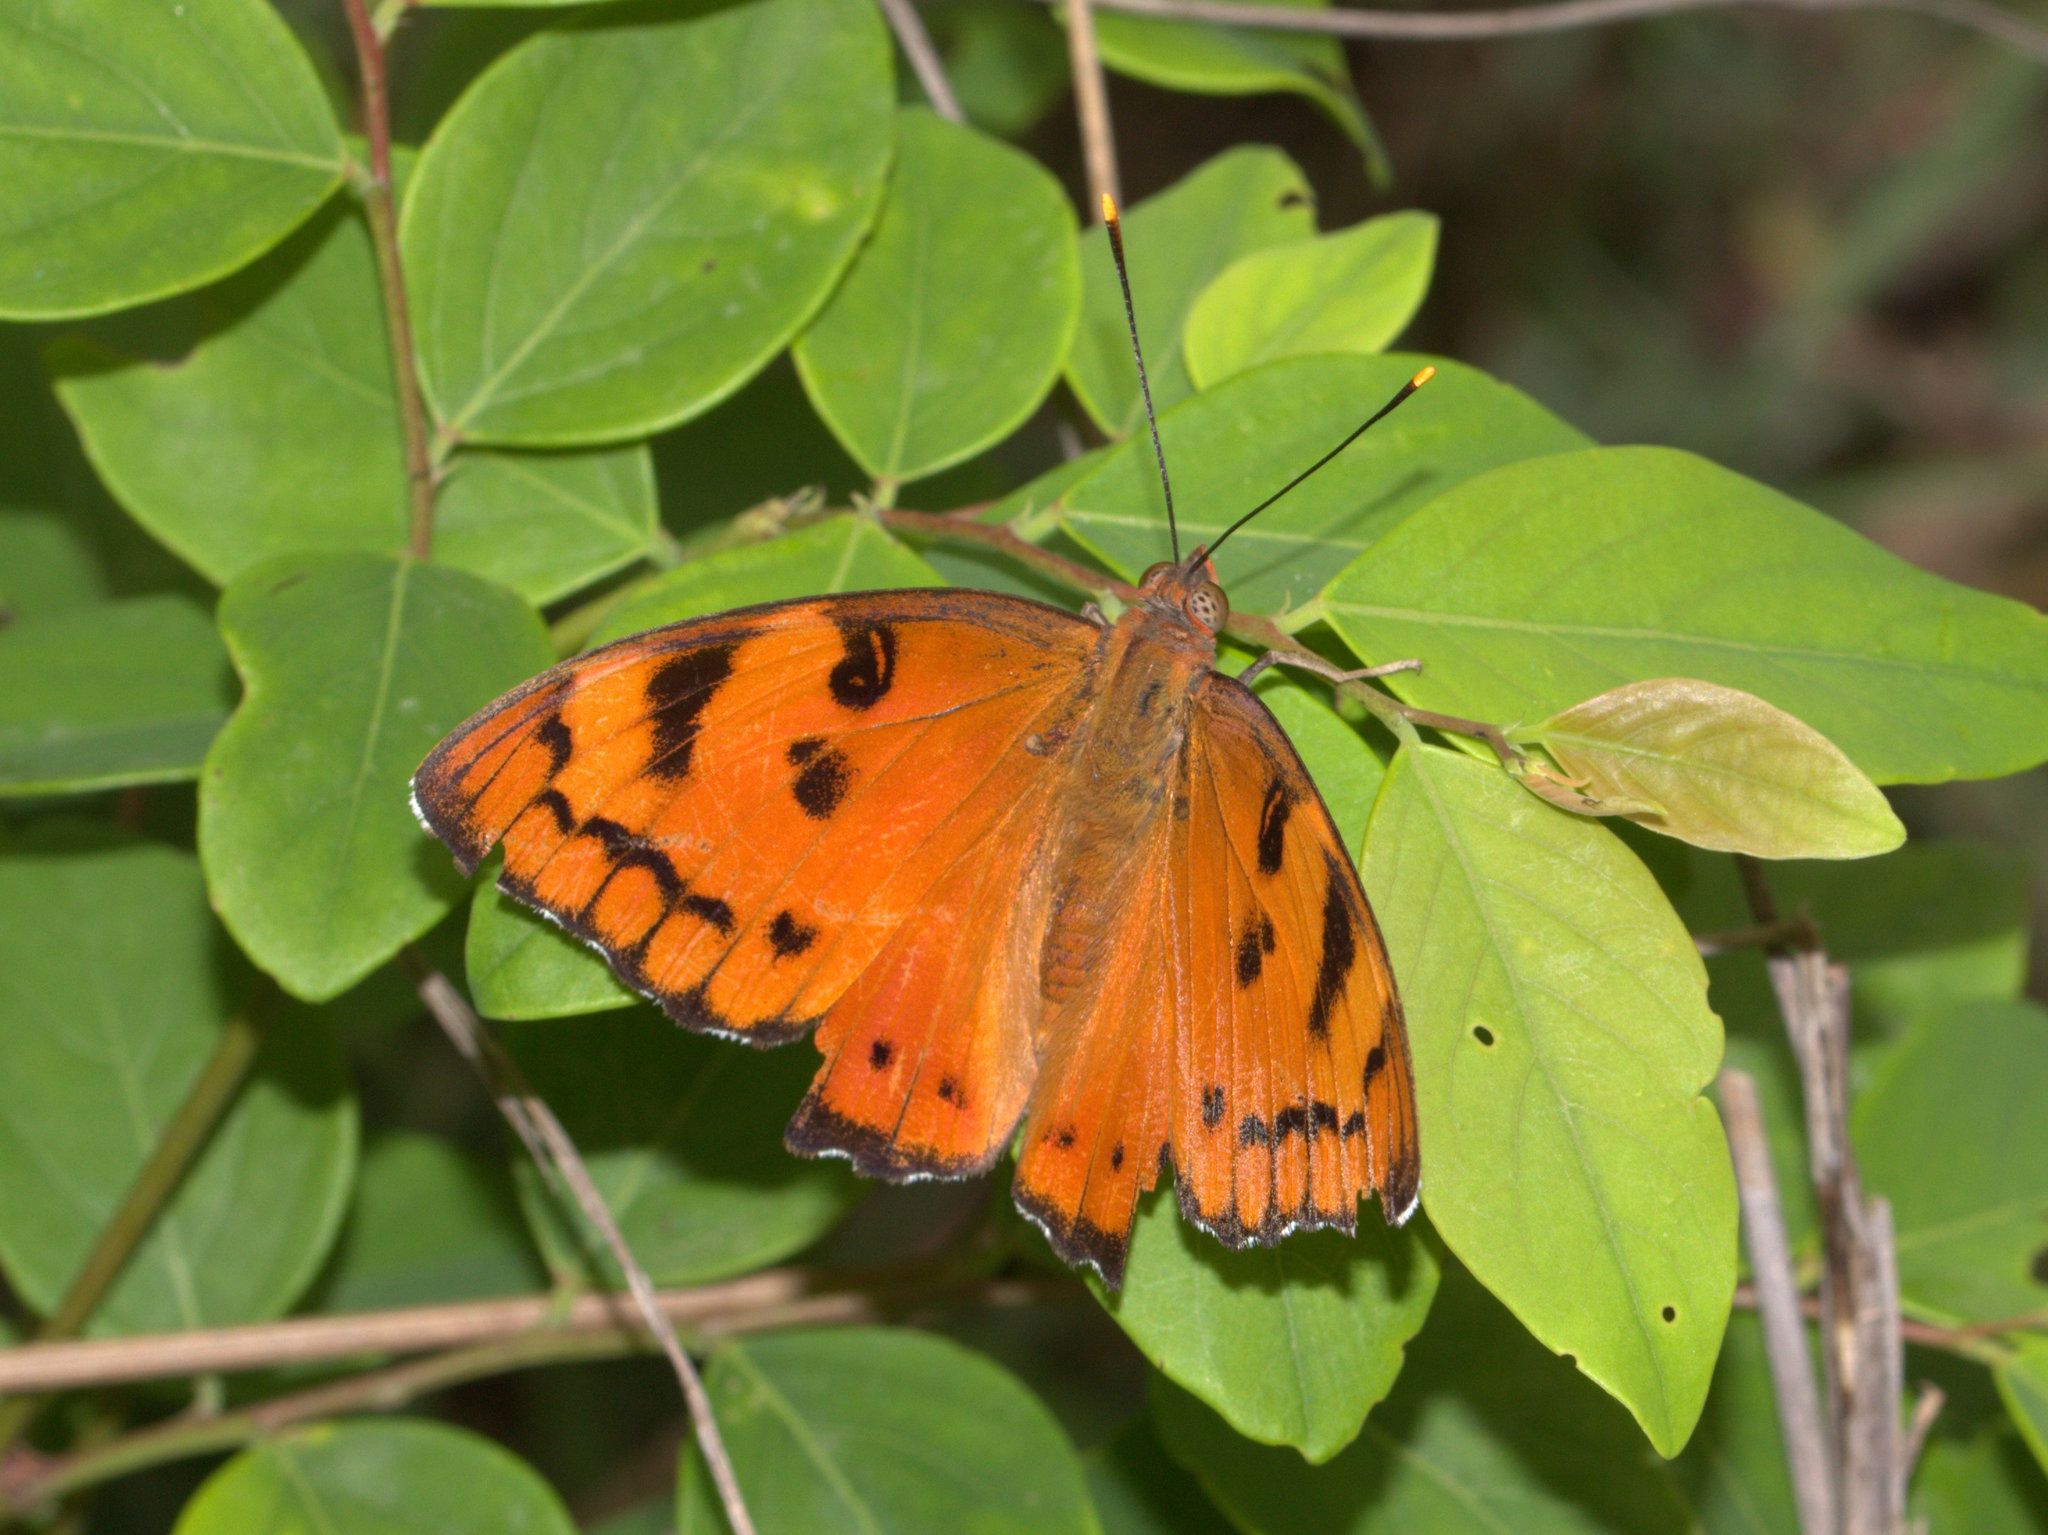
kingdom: Animalia
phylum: Arthropoda
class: Insecta
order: Lepidoptera
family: Nymphalidae
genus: Euthalia
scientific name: Euthalia nais
